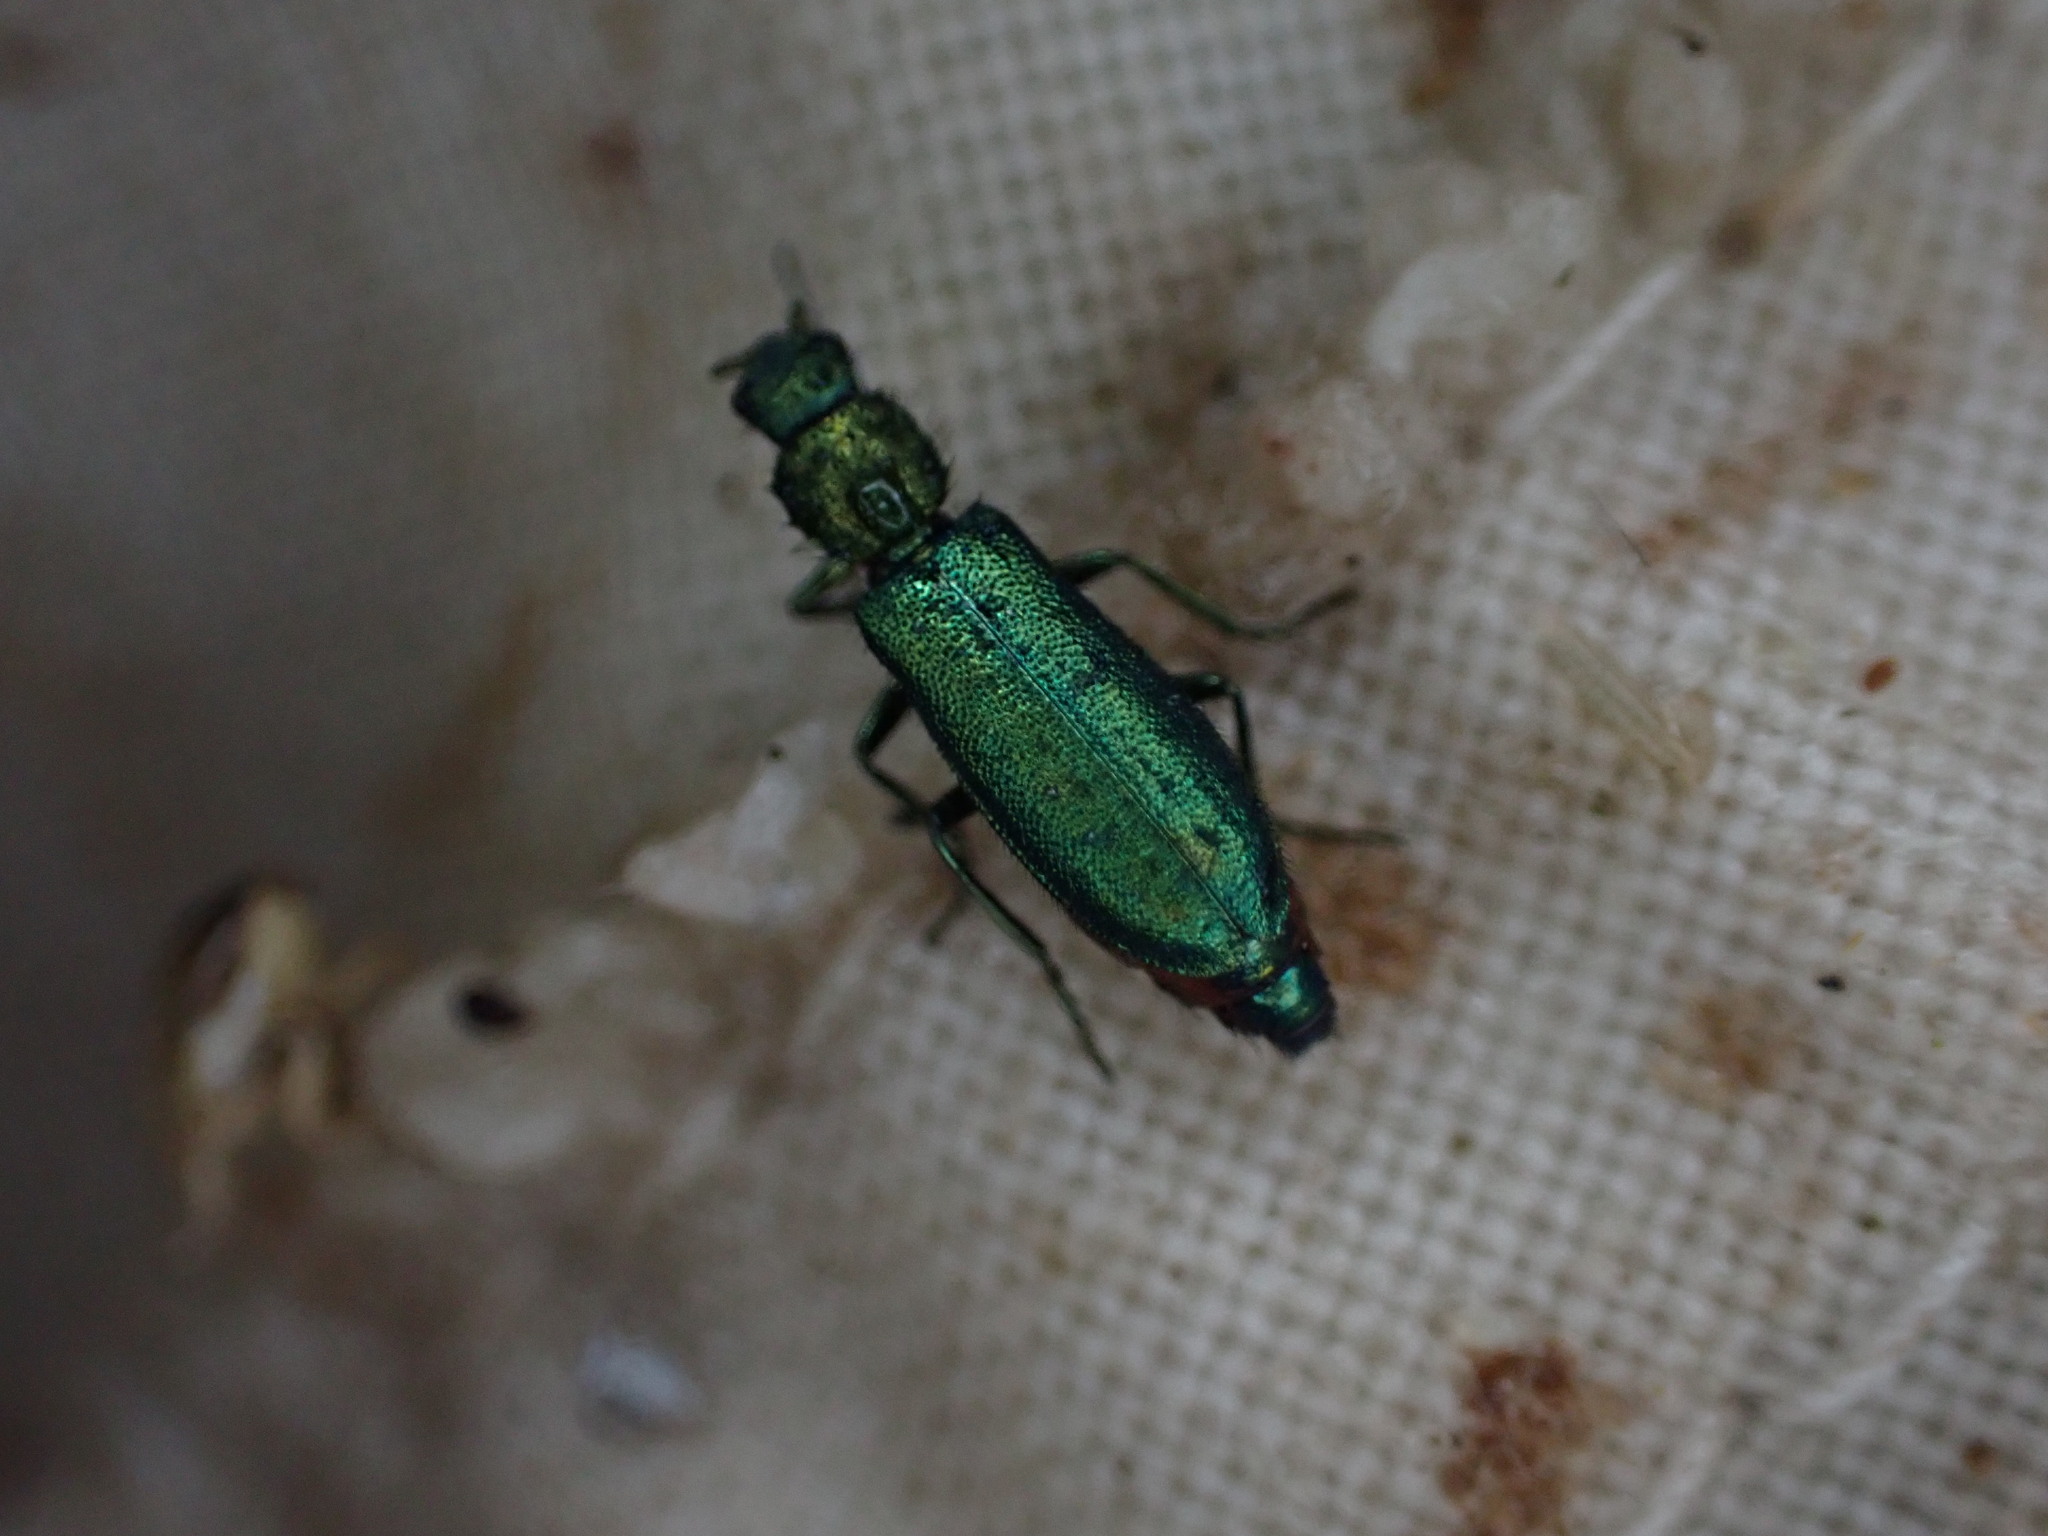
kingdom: Animalia
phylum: Arthropoda
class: Insecta
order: Coleoptera
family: Dasytidae
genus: Psilothrix
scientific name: Psilothrix viridicoerulea
